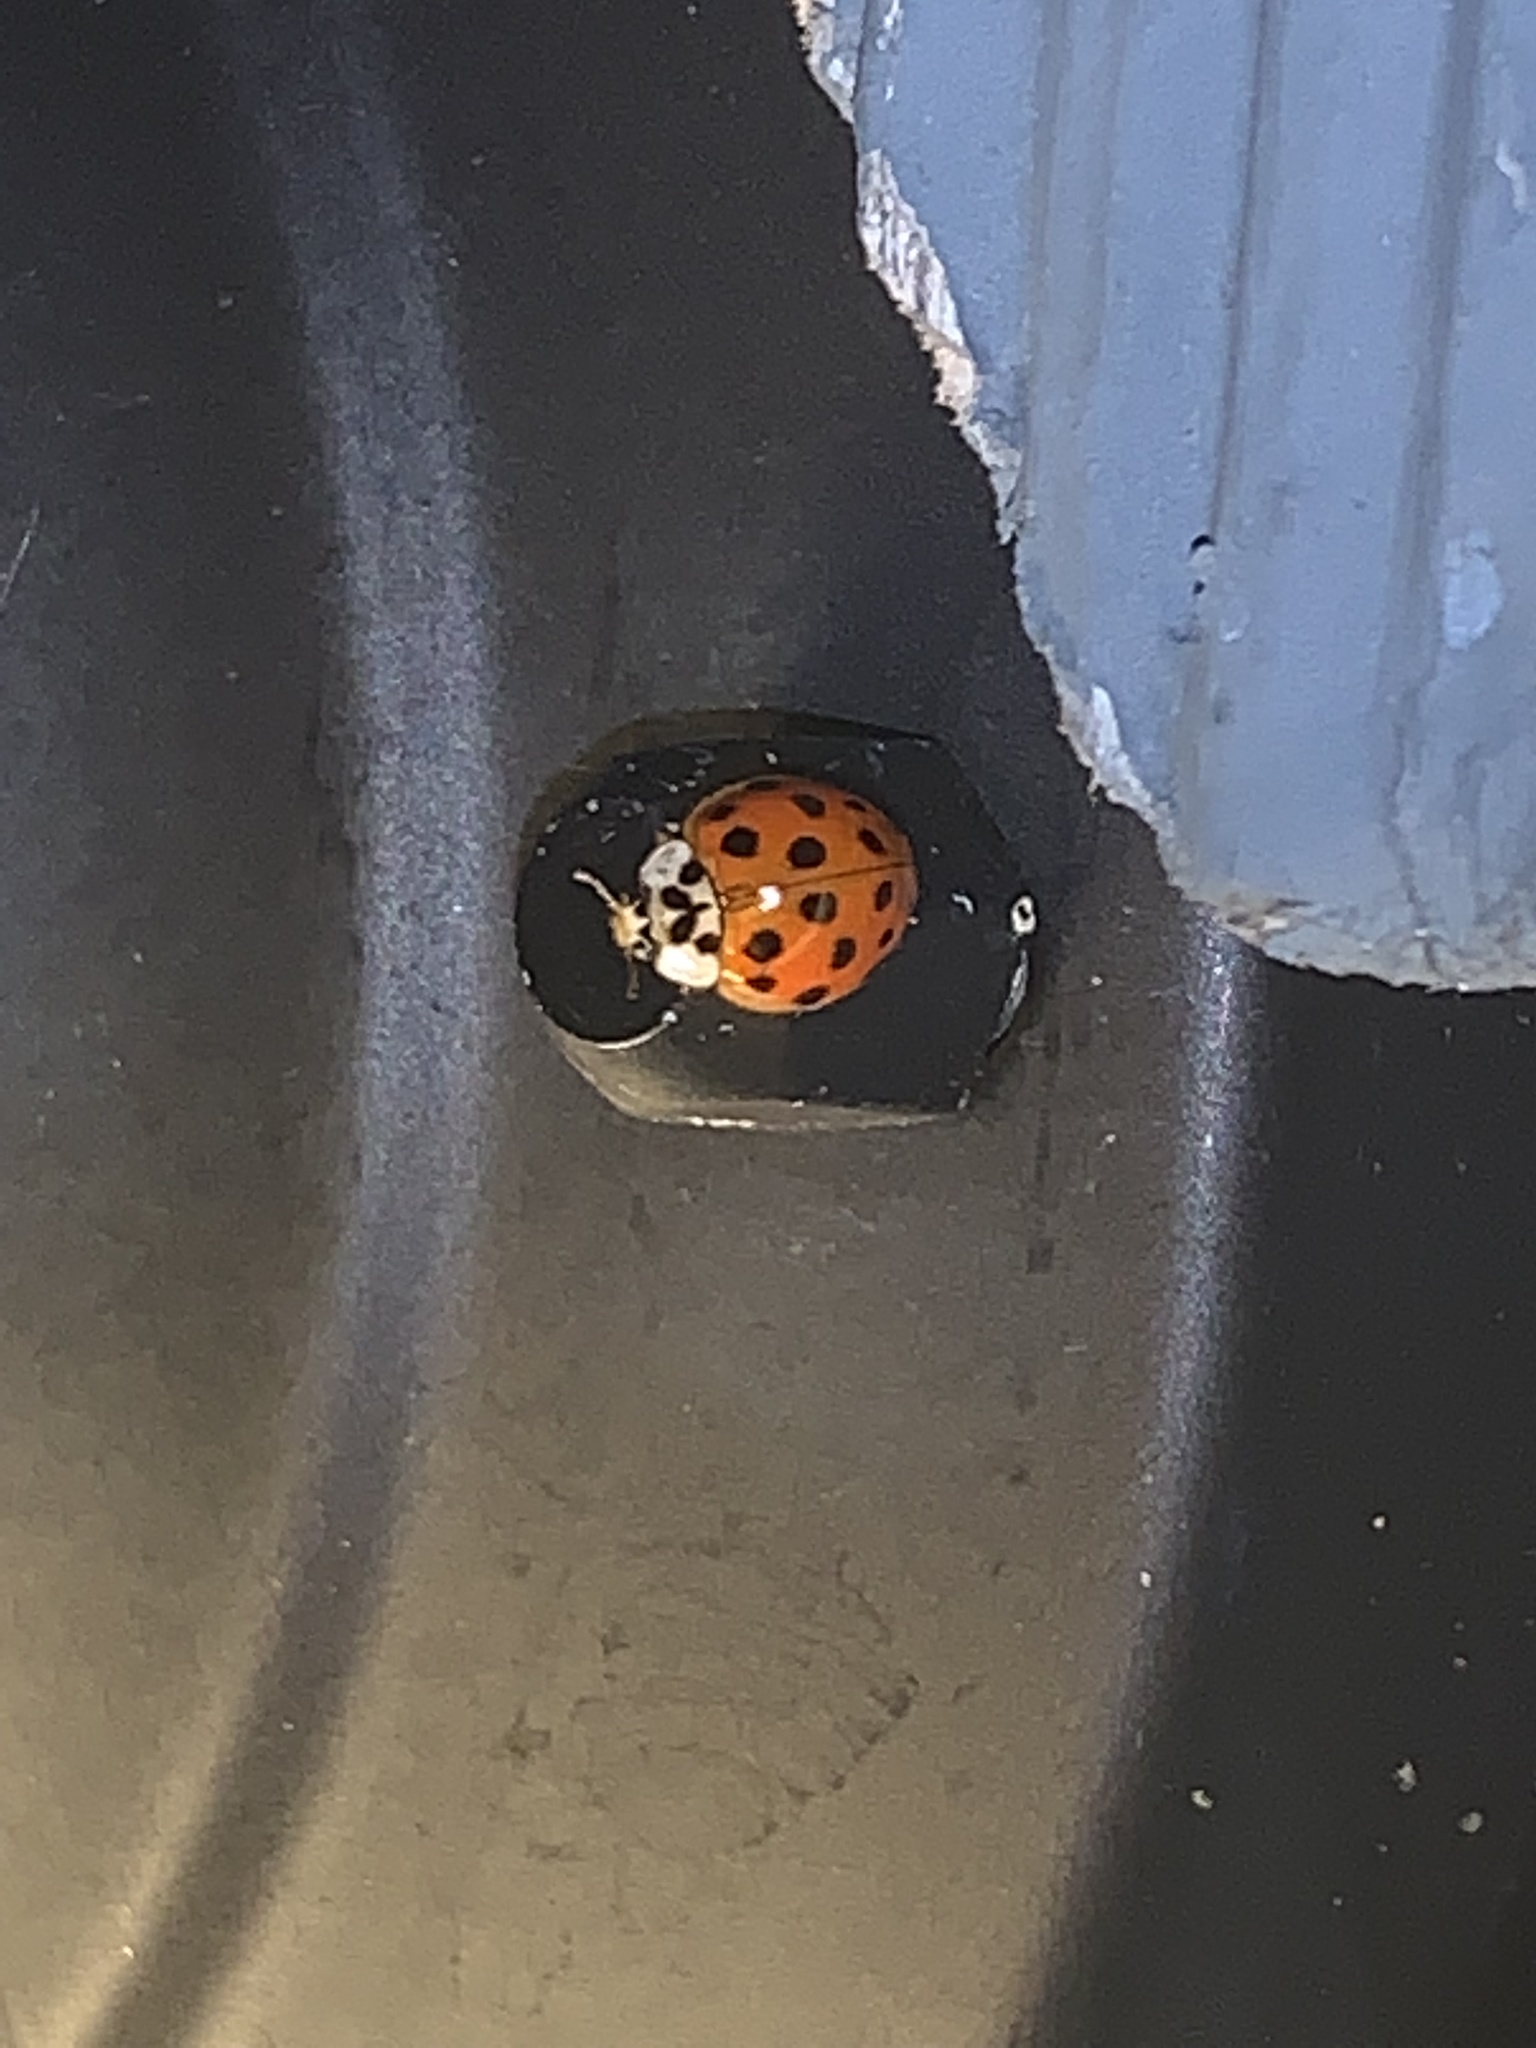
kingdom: Animalia
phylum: Arthropoda
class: Insecta
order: Coleoptera
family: Coccinellidae
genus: Harmonia
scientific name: Harmonia axyridis
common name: Harlequin ladybird
